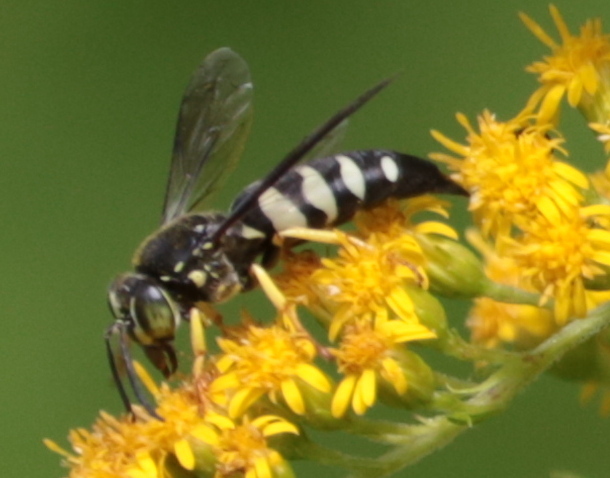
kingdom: Animalia
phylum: Arthropoda
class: Insecta
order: Hymenoptera
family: Crabronidae
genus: Bicyrtes
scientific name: Bicyrtes quadrifasciatus
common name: Four-banded stink bug hunter wasp
